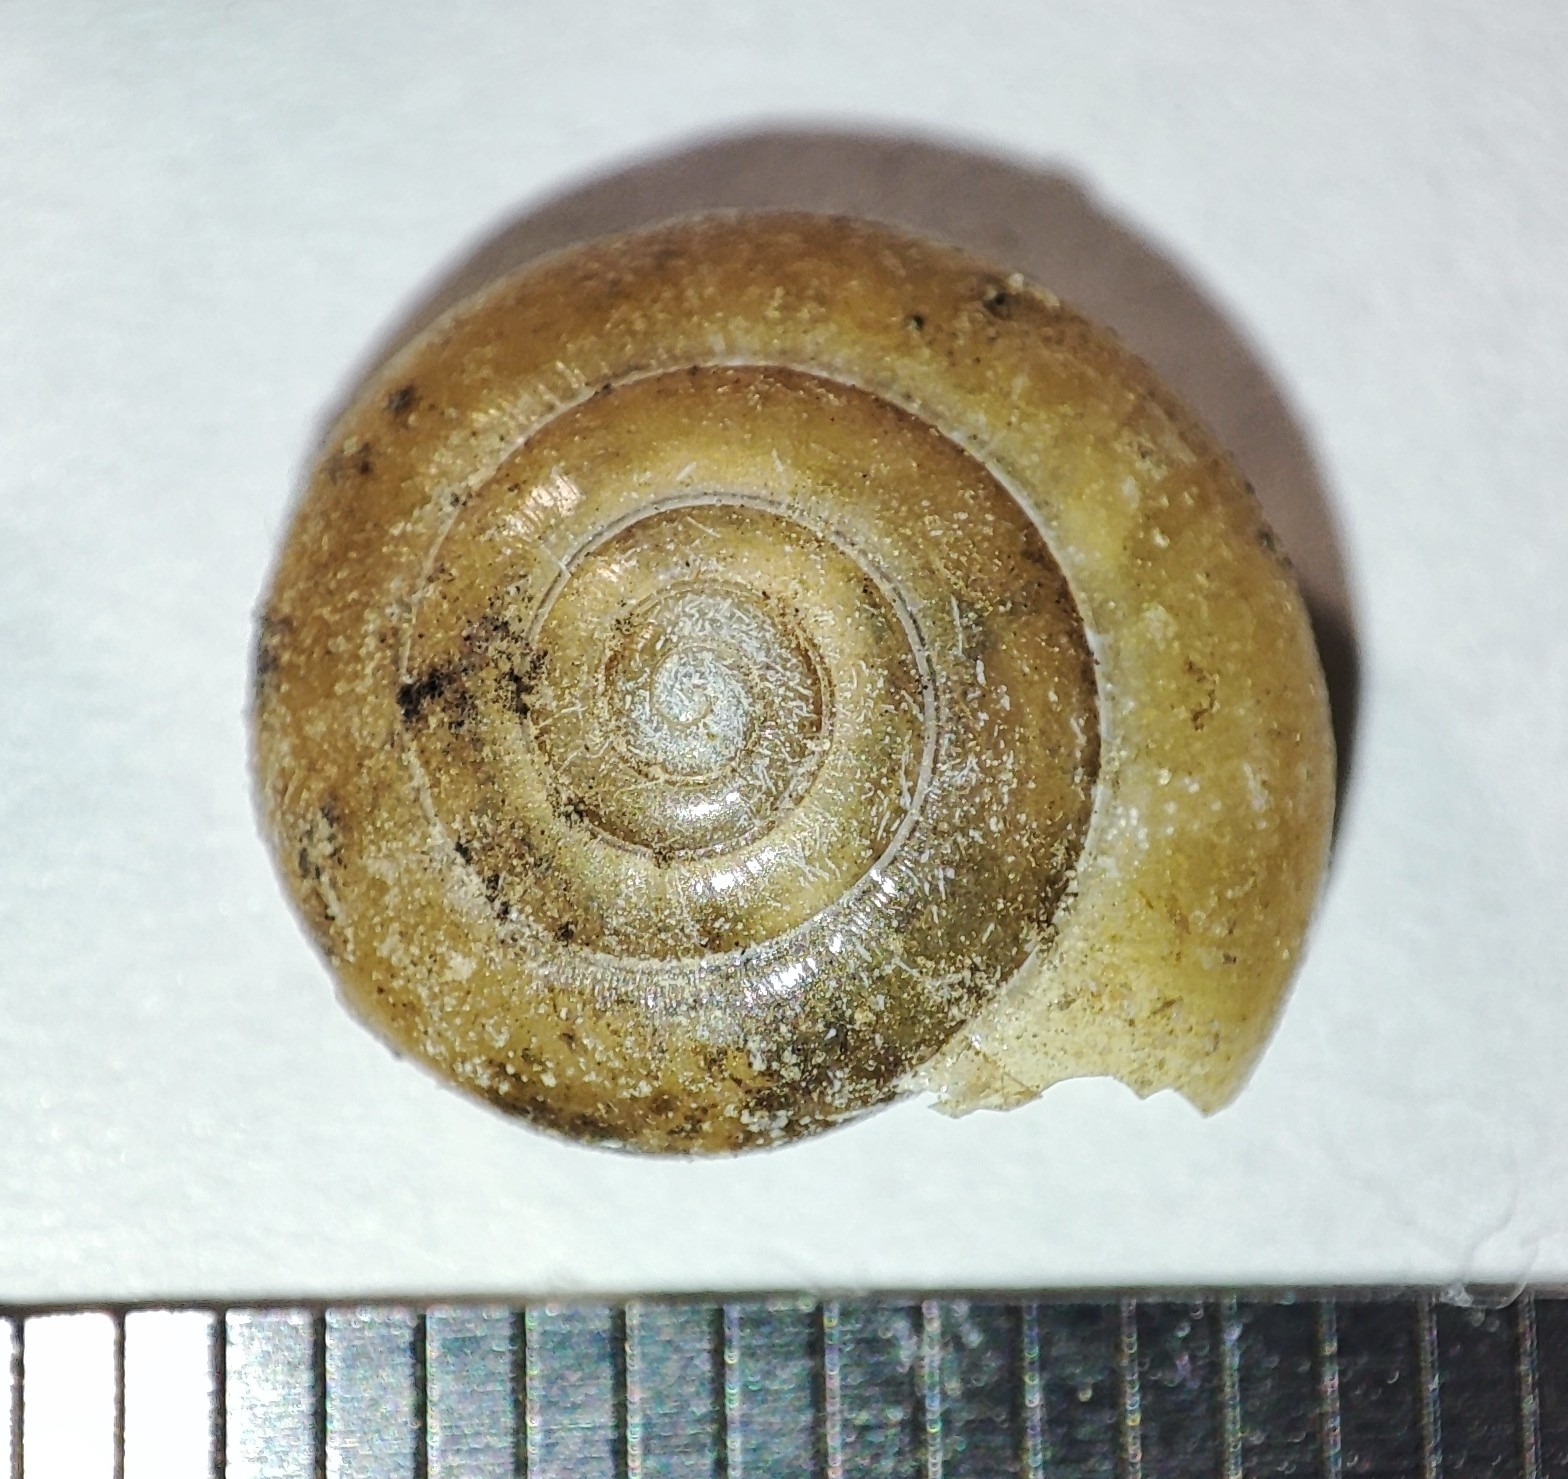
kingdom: Animalia
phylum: Mollusca
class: Gastropoda
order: Stylommatophora
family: Oxychilidae
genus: Morlina
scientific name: Morlina glabra
